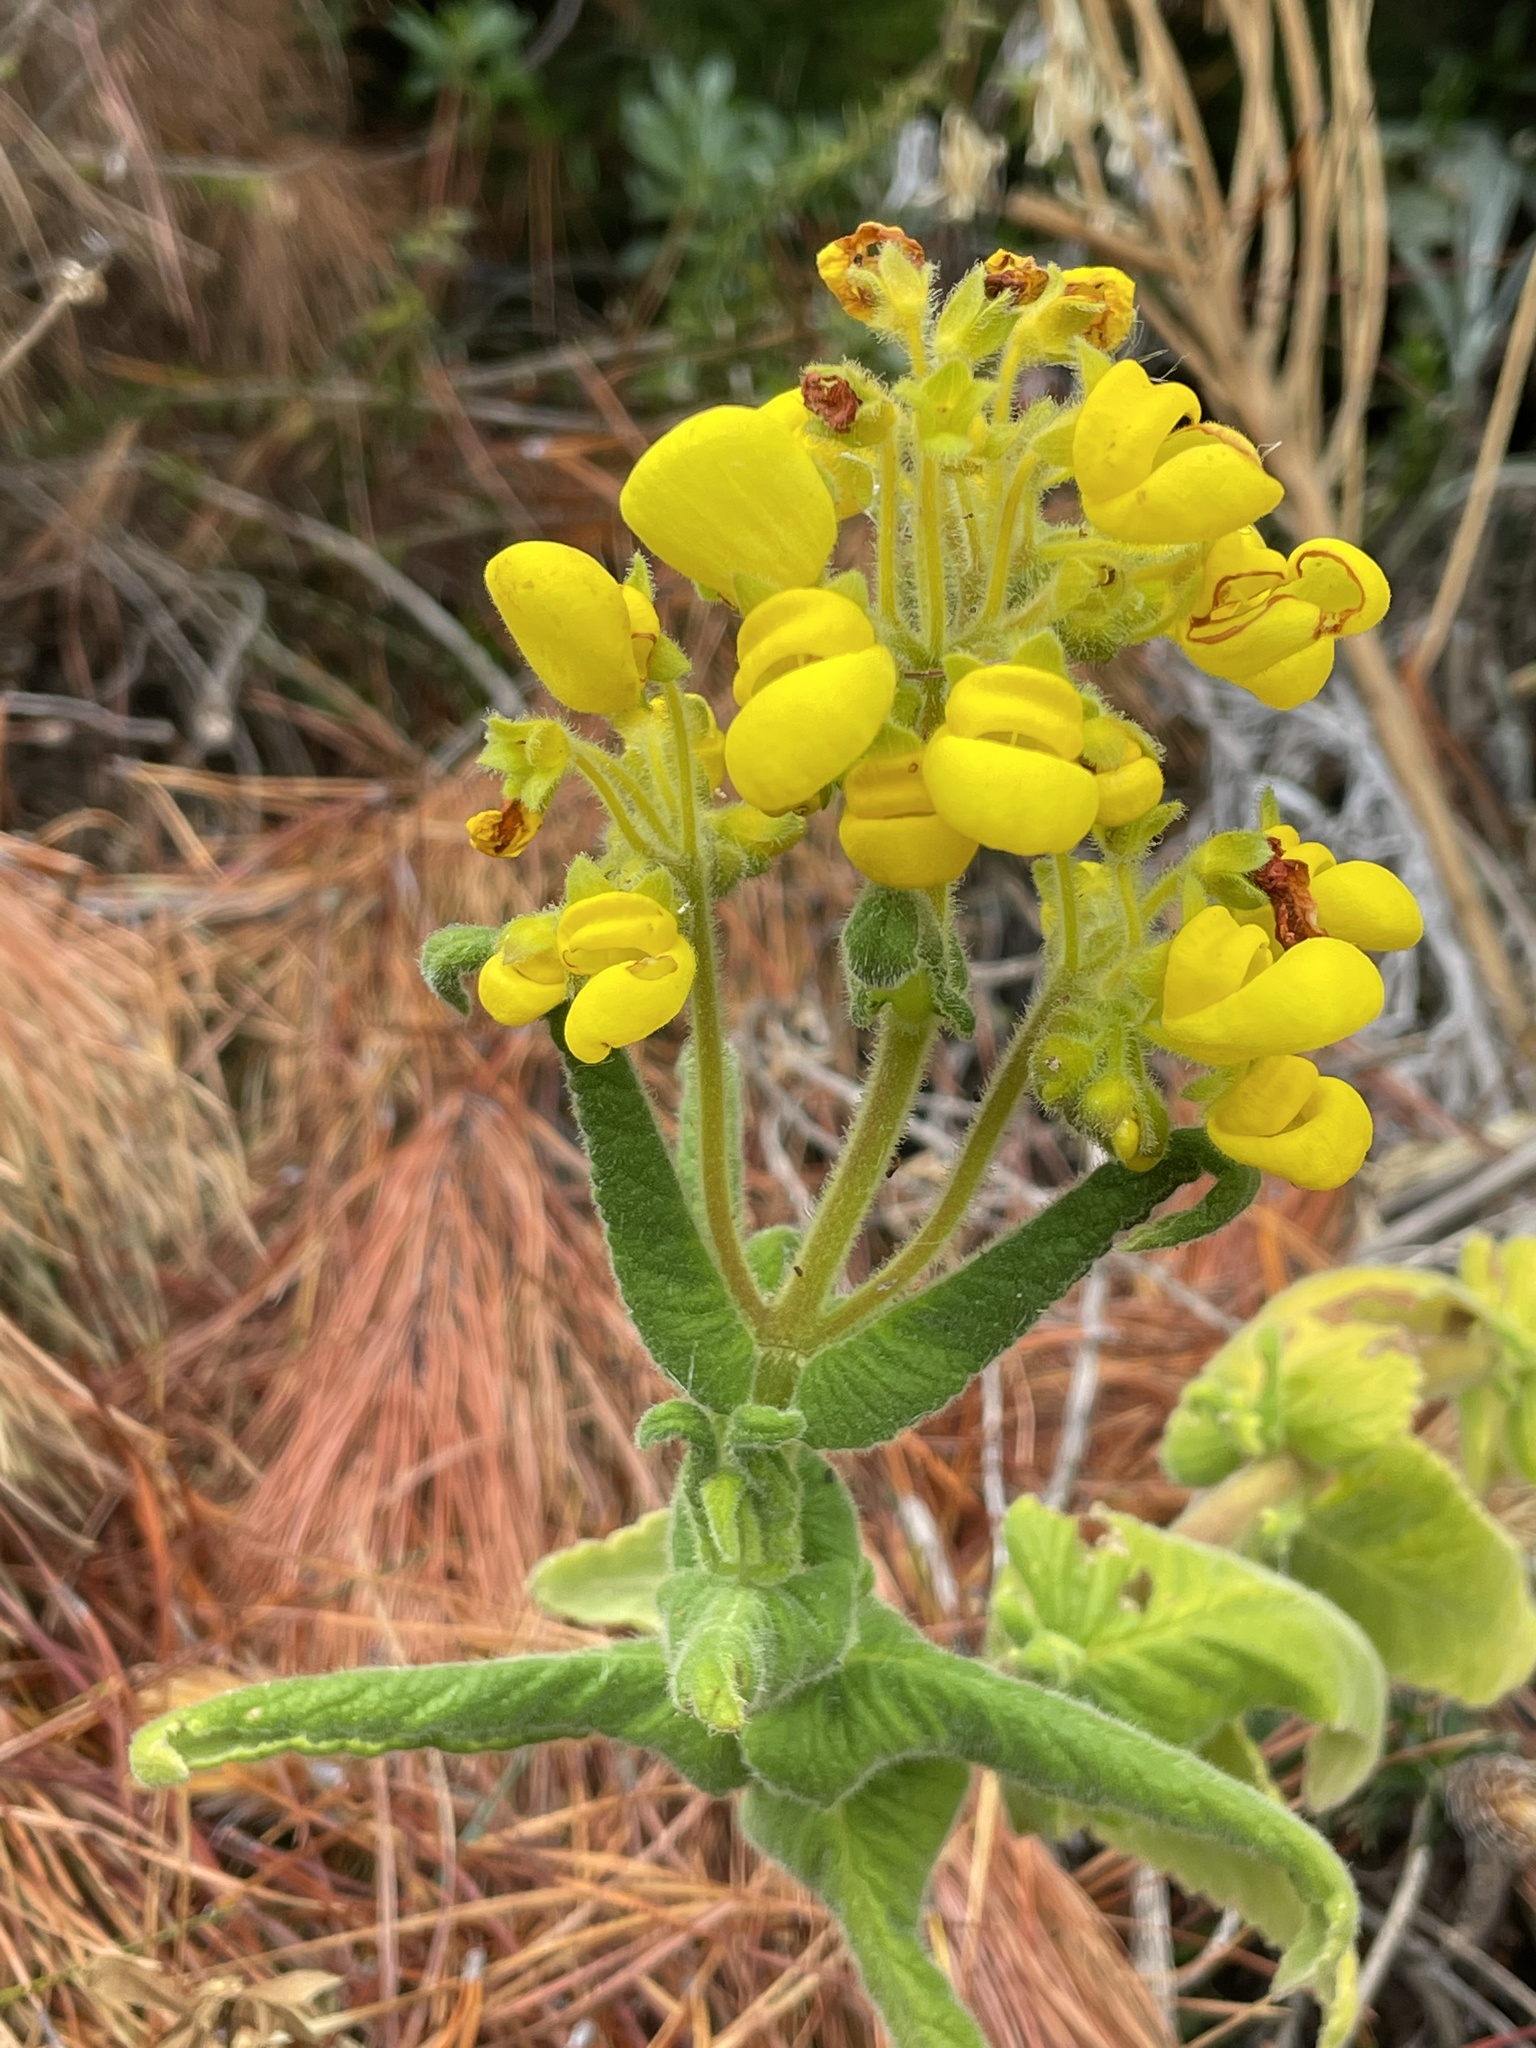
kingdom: Plantae
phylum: Tracheophyta
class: Magnoliopsida
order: Lamiales
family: Calceolariaceae
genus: Calceolaria
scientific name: Calceolaria crenata
